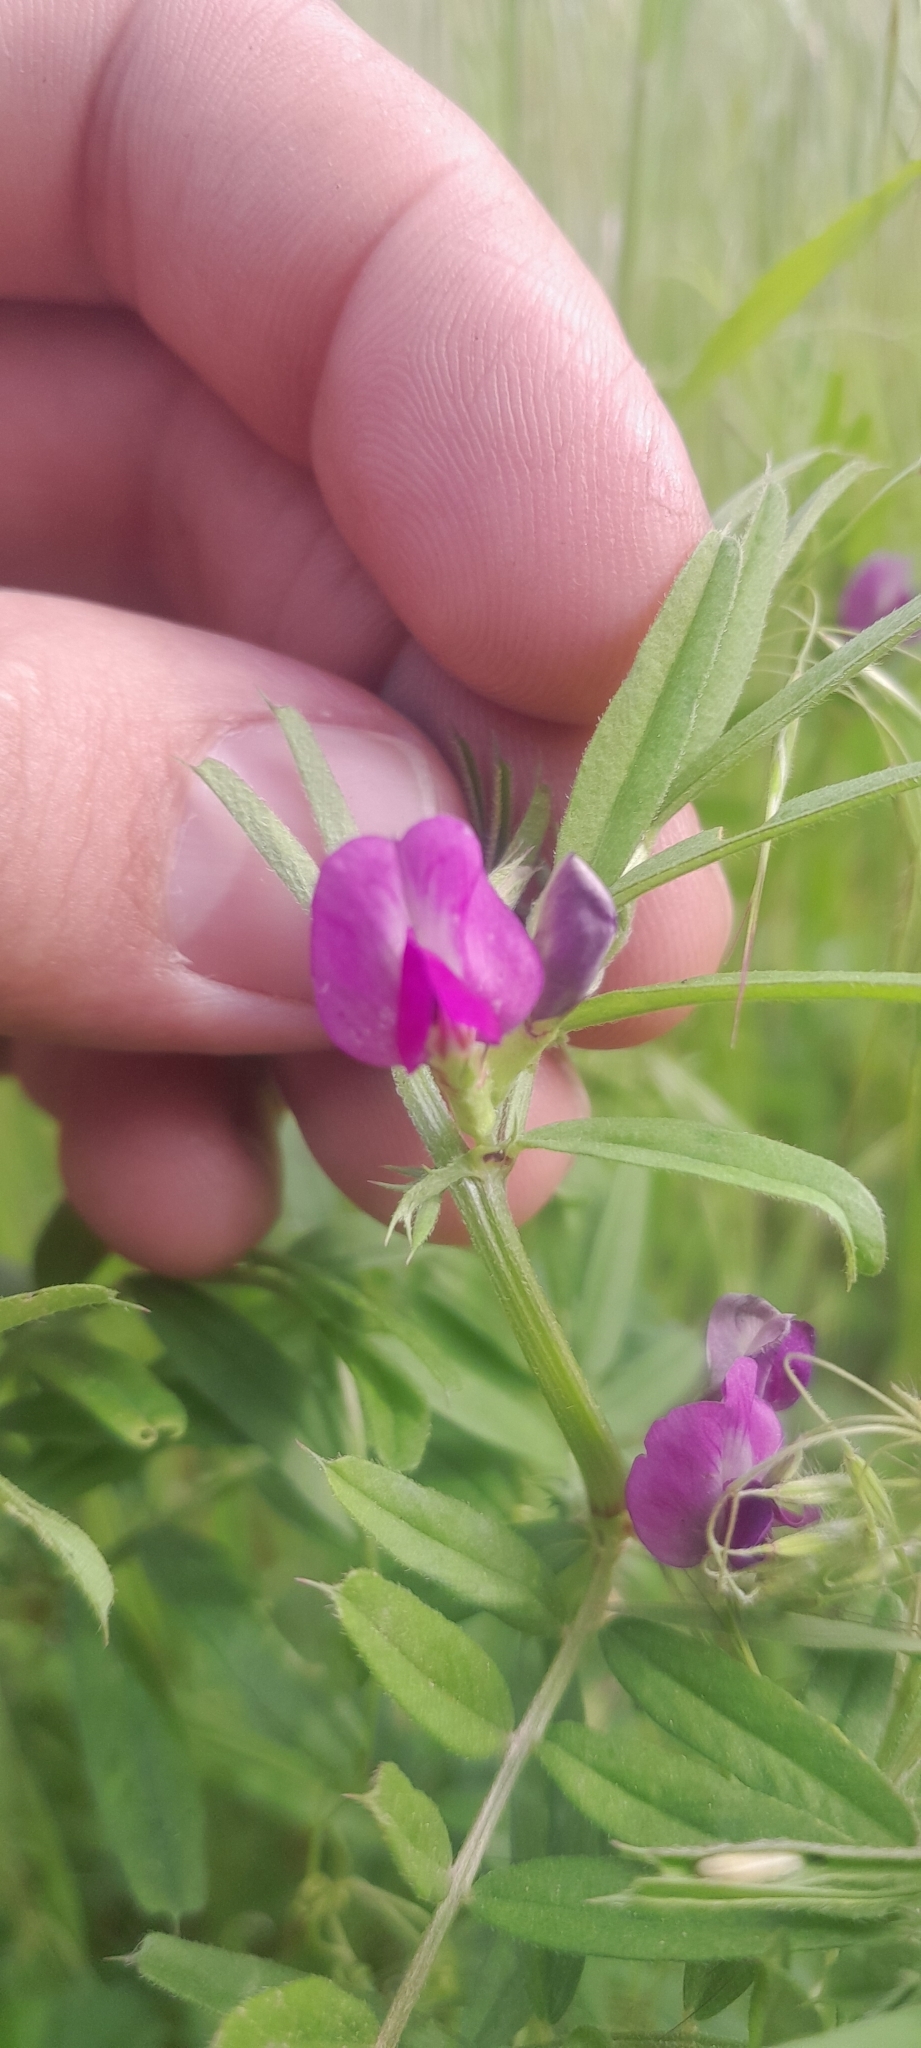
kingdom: Plantae
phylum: Tracheophyta
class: Magnoliopsida
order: Fabales
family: Fabaceae
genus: Vicia
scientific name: Vicia sativa
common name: Garden vetch
